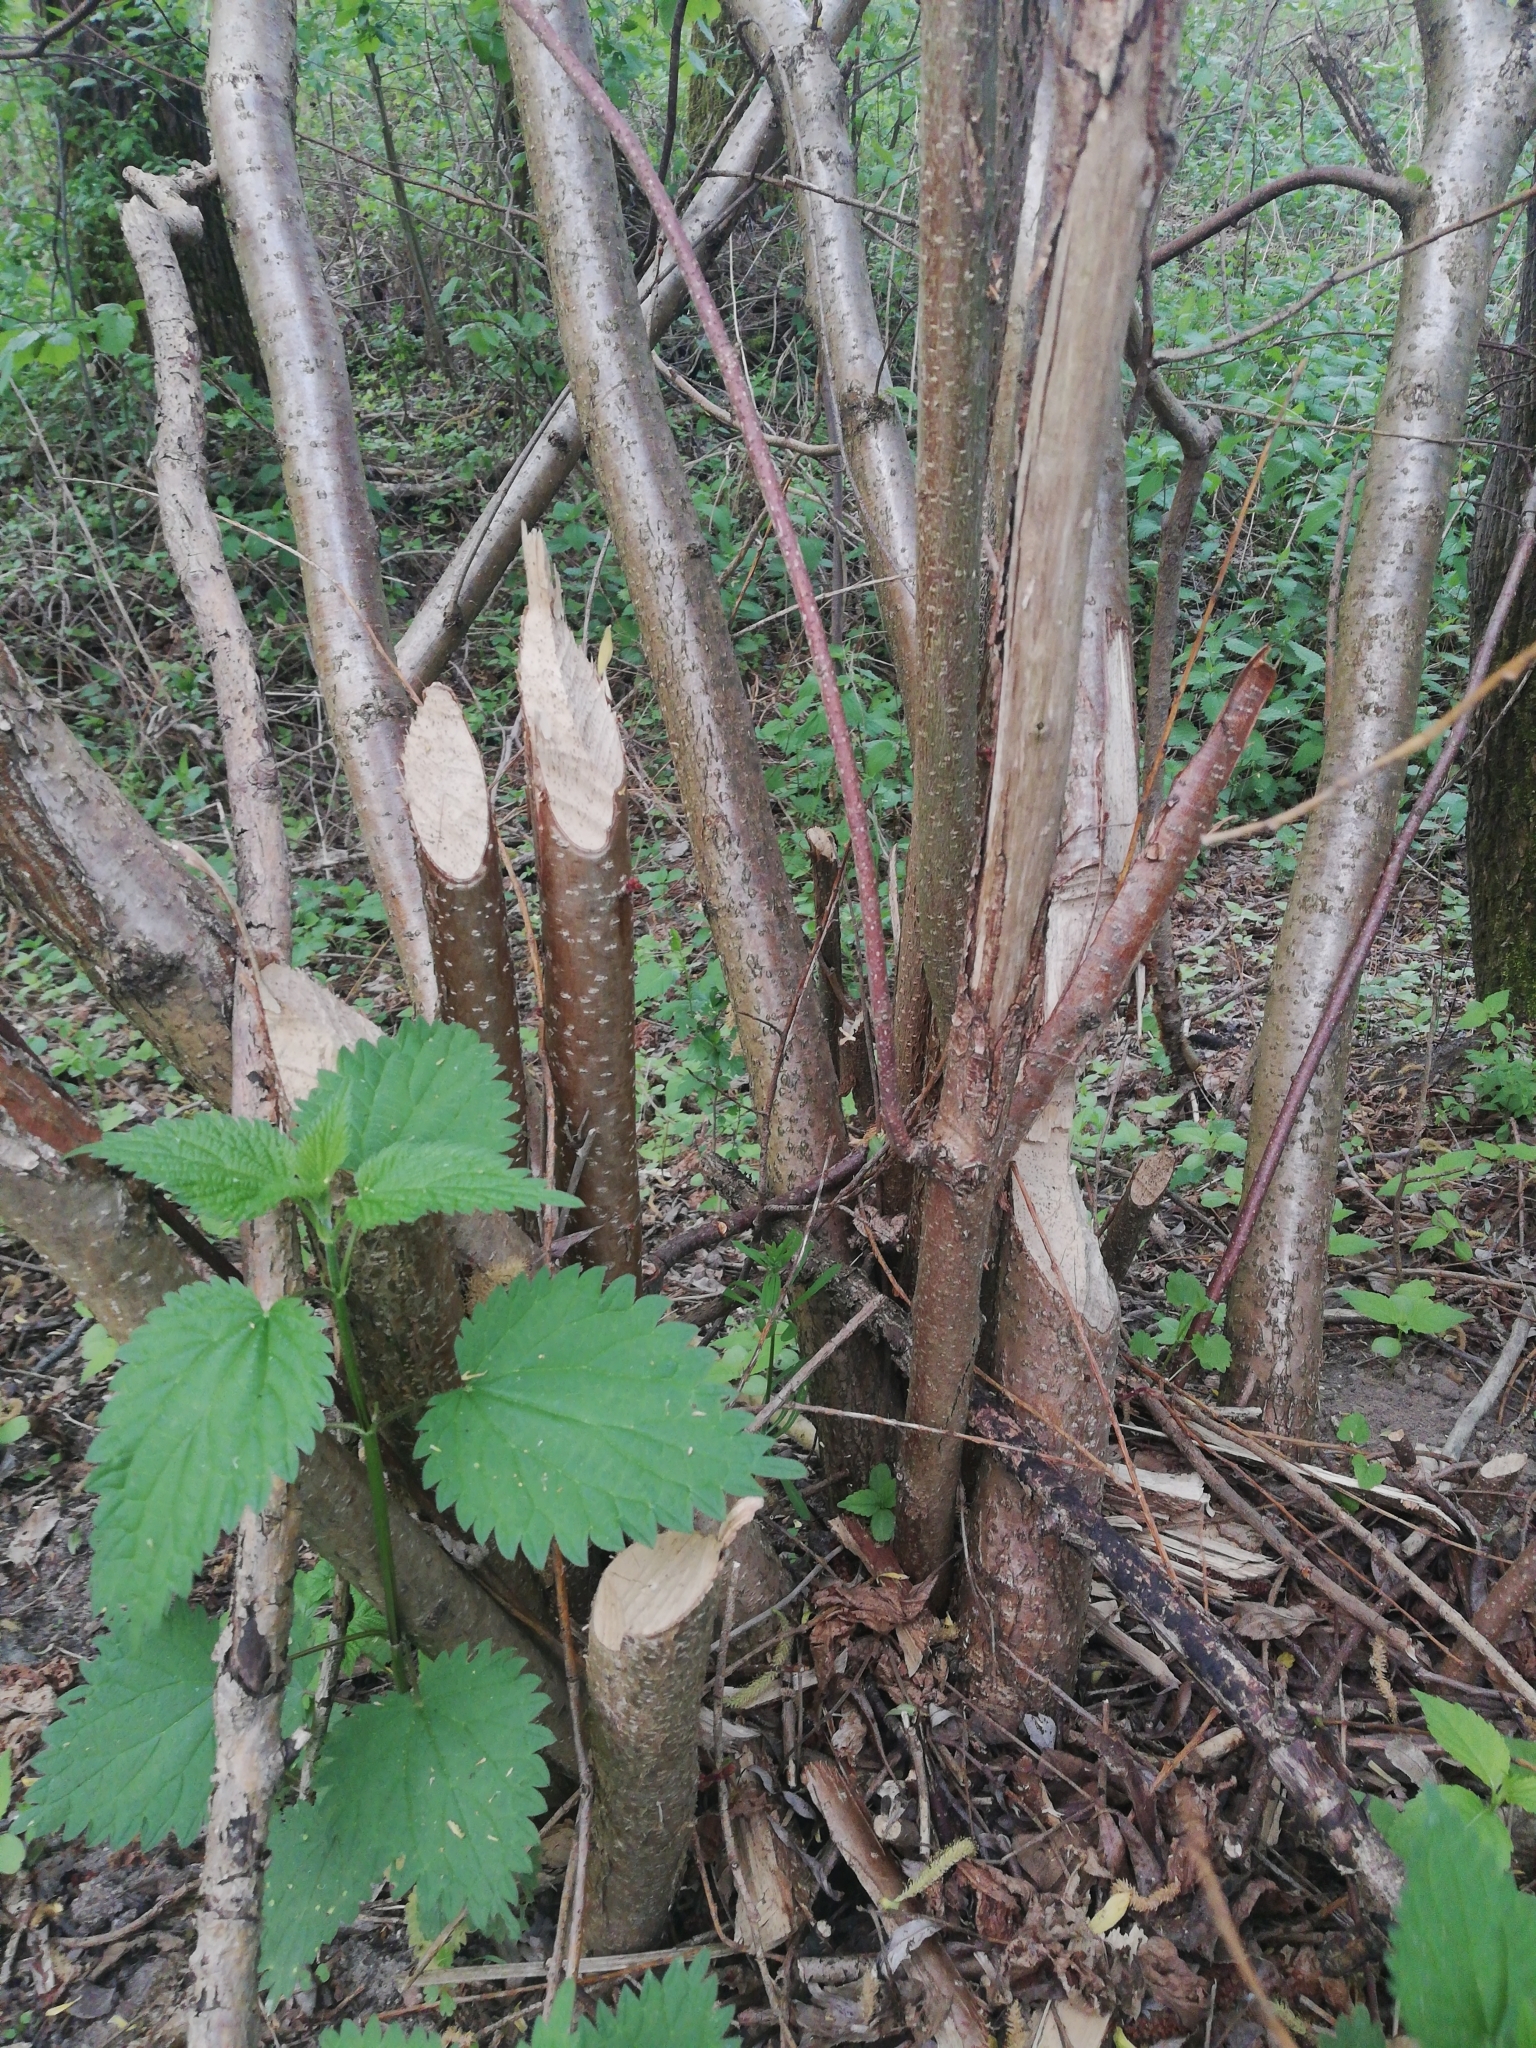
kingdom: Animalia
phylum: Chordata
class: Mammalia
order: Rodentia
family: Castoridae
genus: Castor
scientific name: Castor fiber
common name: Eurasian beaver
